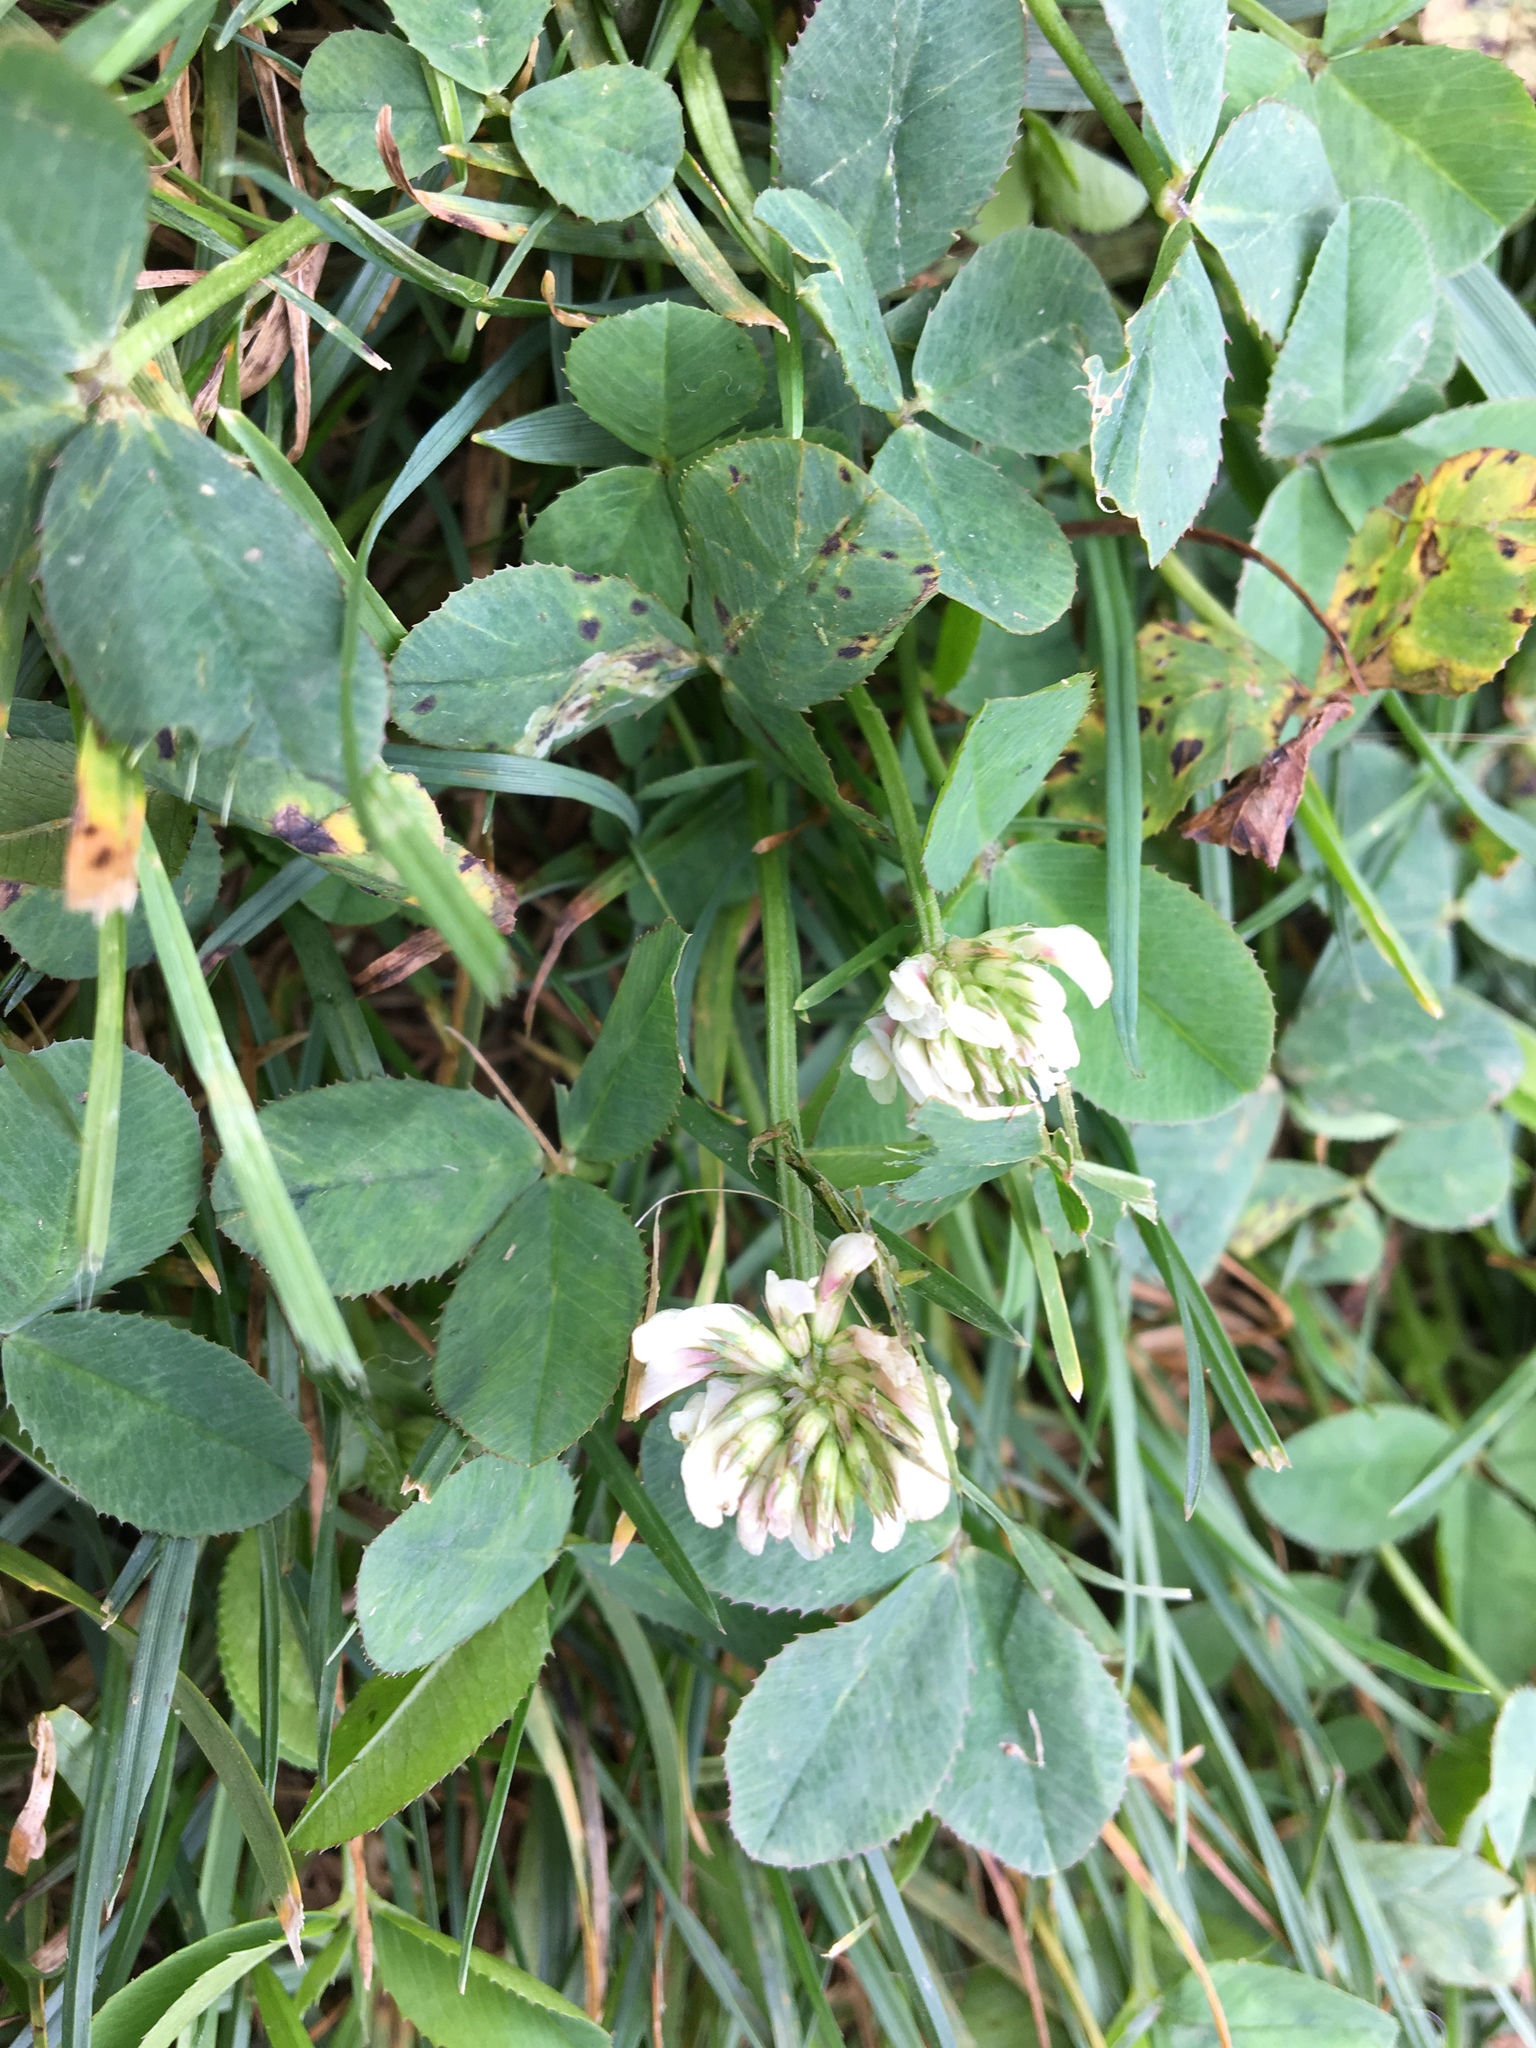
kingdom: Plantae
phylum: Tracheophyta
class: Magnoliopsida
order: Fabales
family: Fabaceae
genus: Trifolium
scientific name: Trifolium repens
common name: White clover
